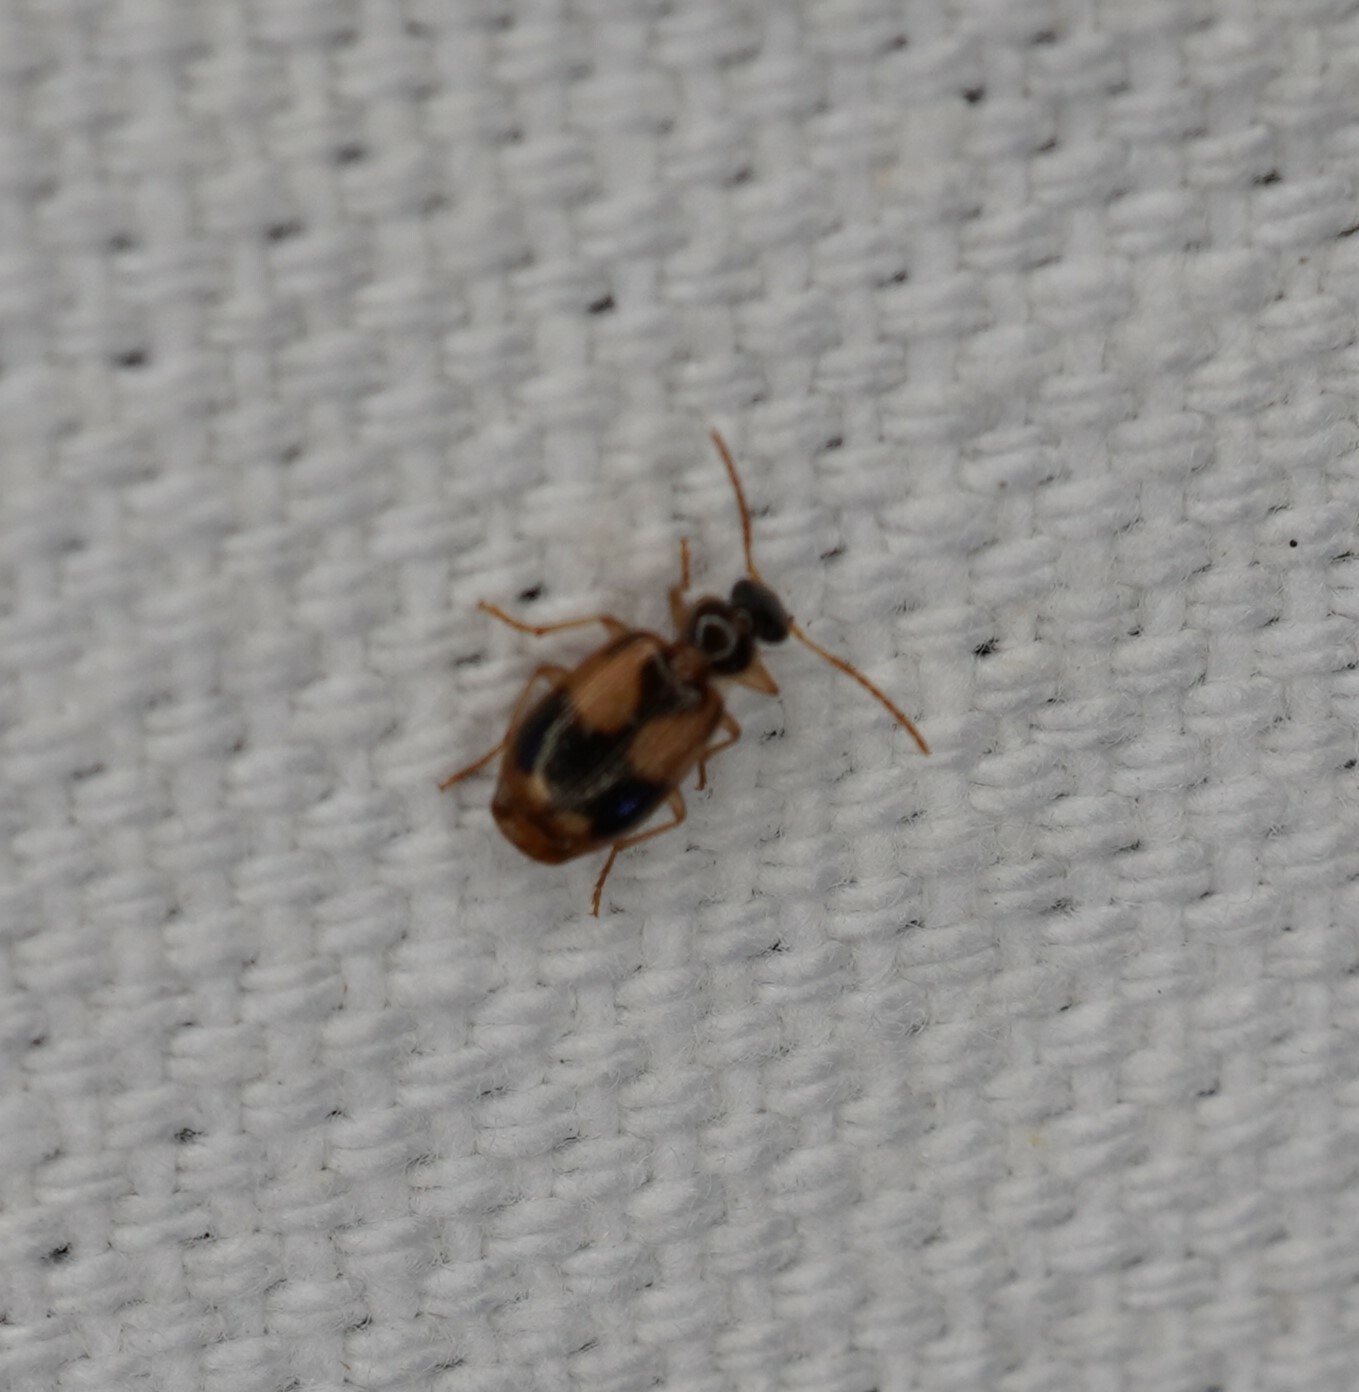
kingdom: Animalia
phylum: Arthropoda
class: Insecta
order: Coleoptera
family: Carabidae
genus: Lebia
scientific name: Lebia ornata
